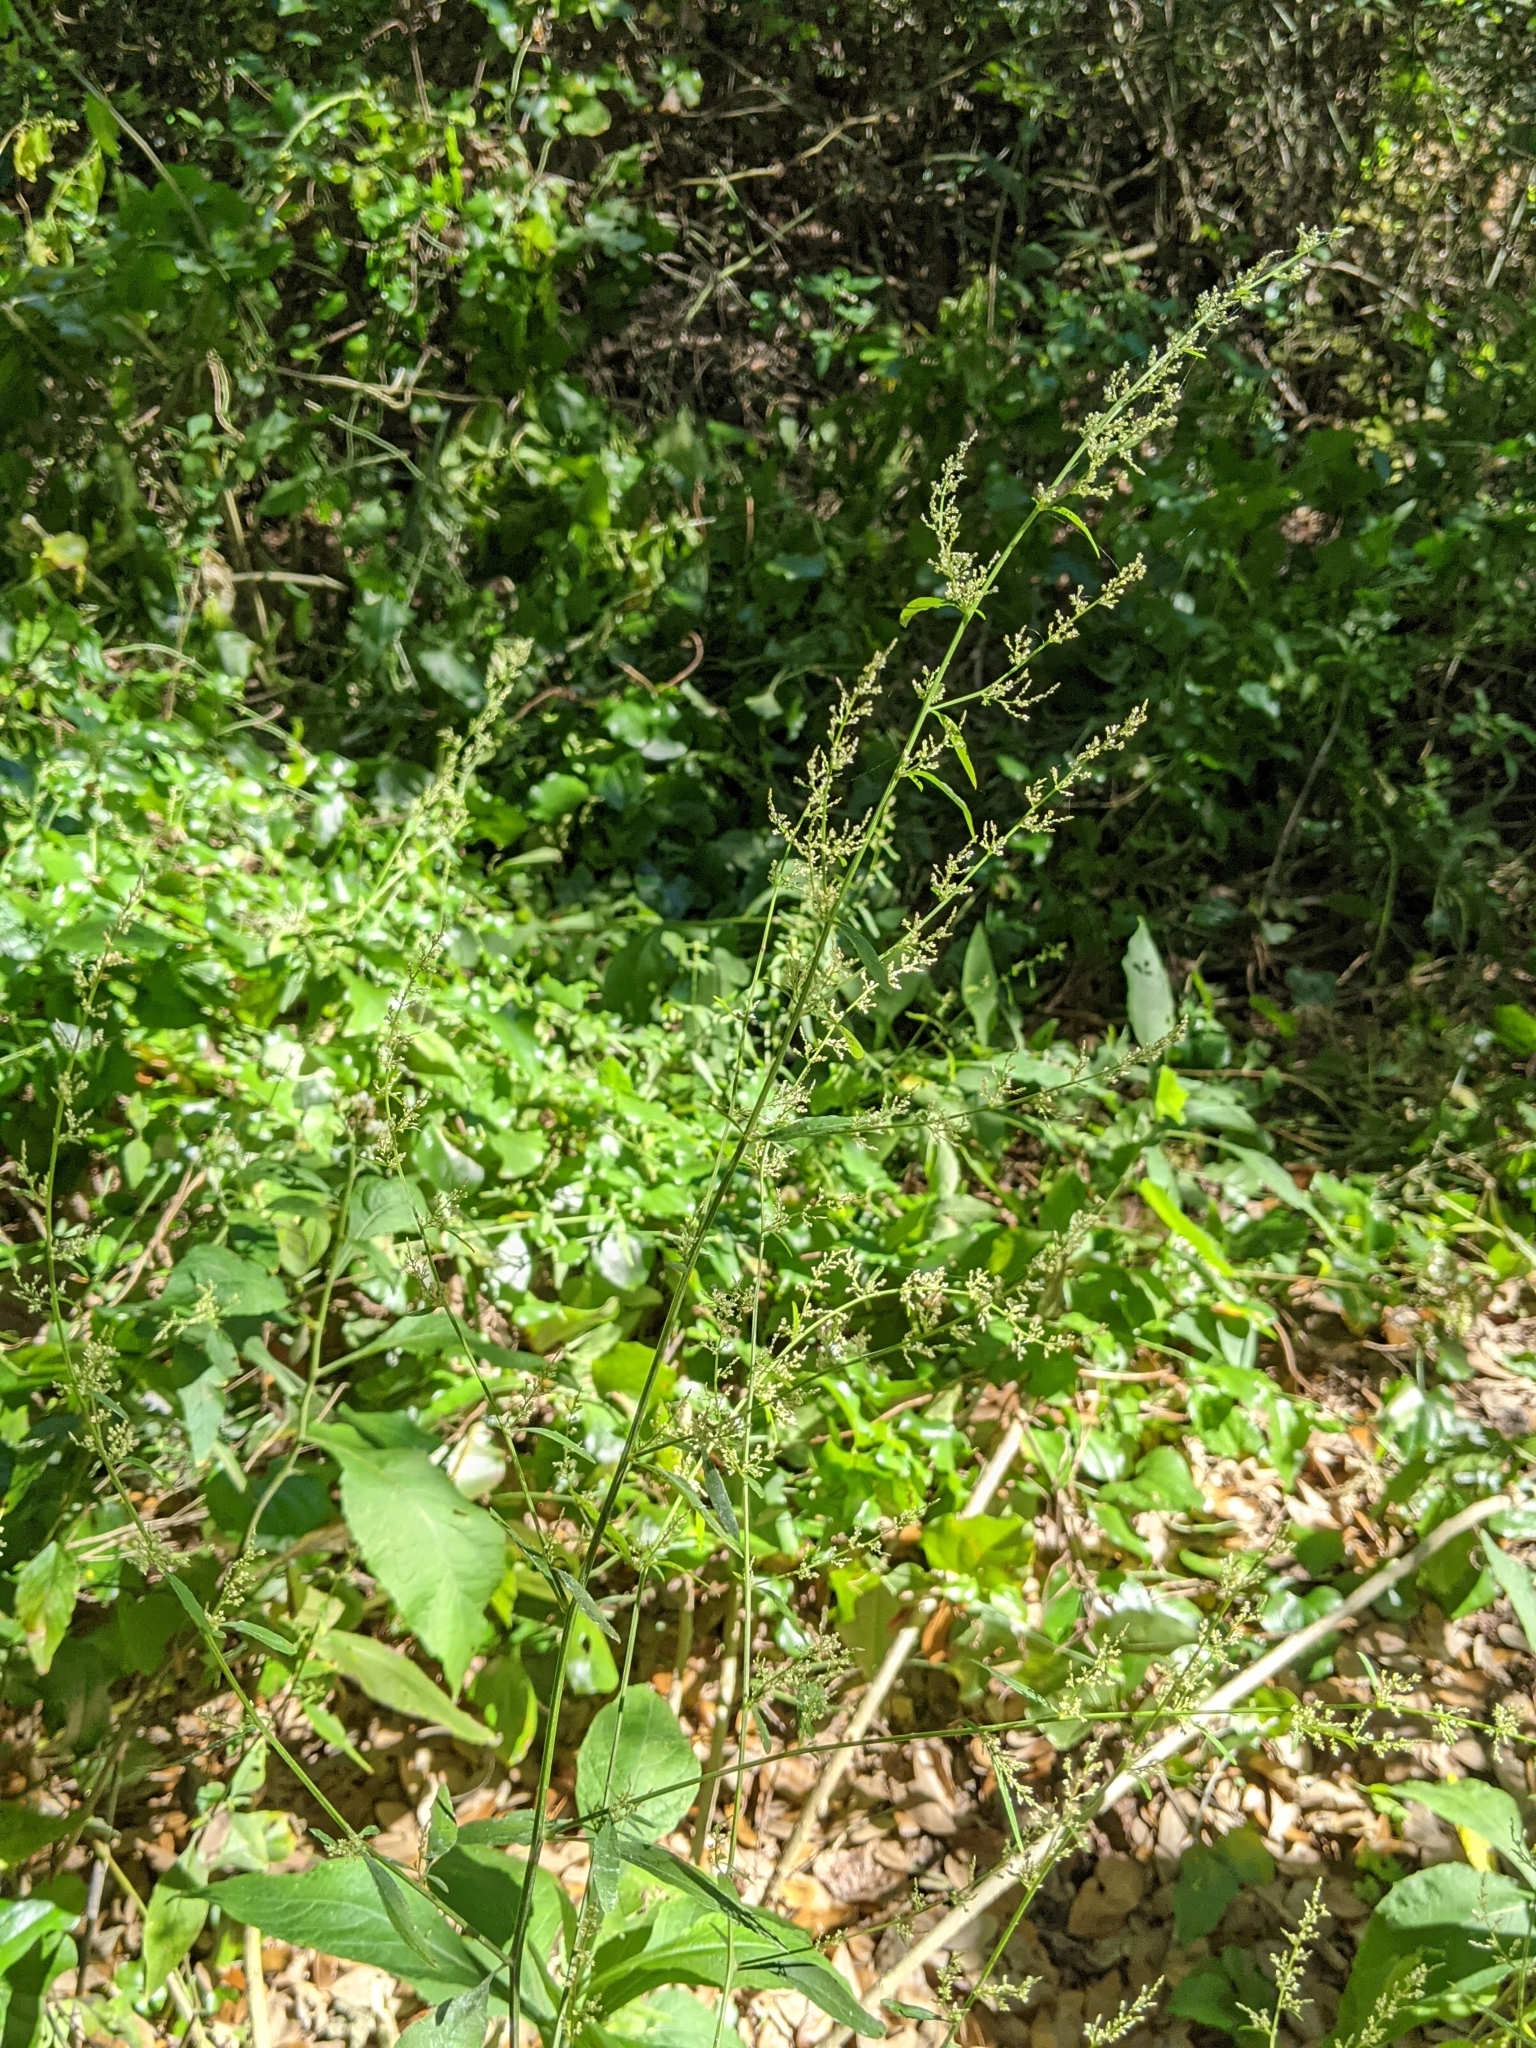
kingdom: Plantae
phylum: Tracheophyta
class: Magnoliopsida
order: Caryophyllales
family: Amaranthaceae
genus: Iresine
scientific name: Iresine diffusa
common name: Juba's-bush
